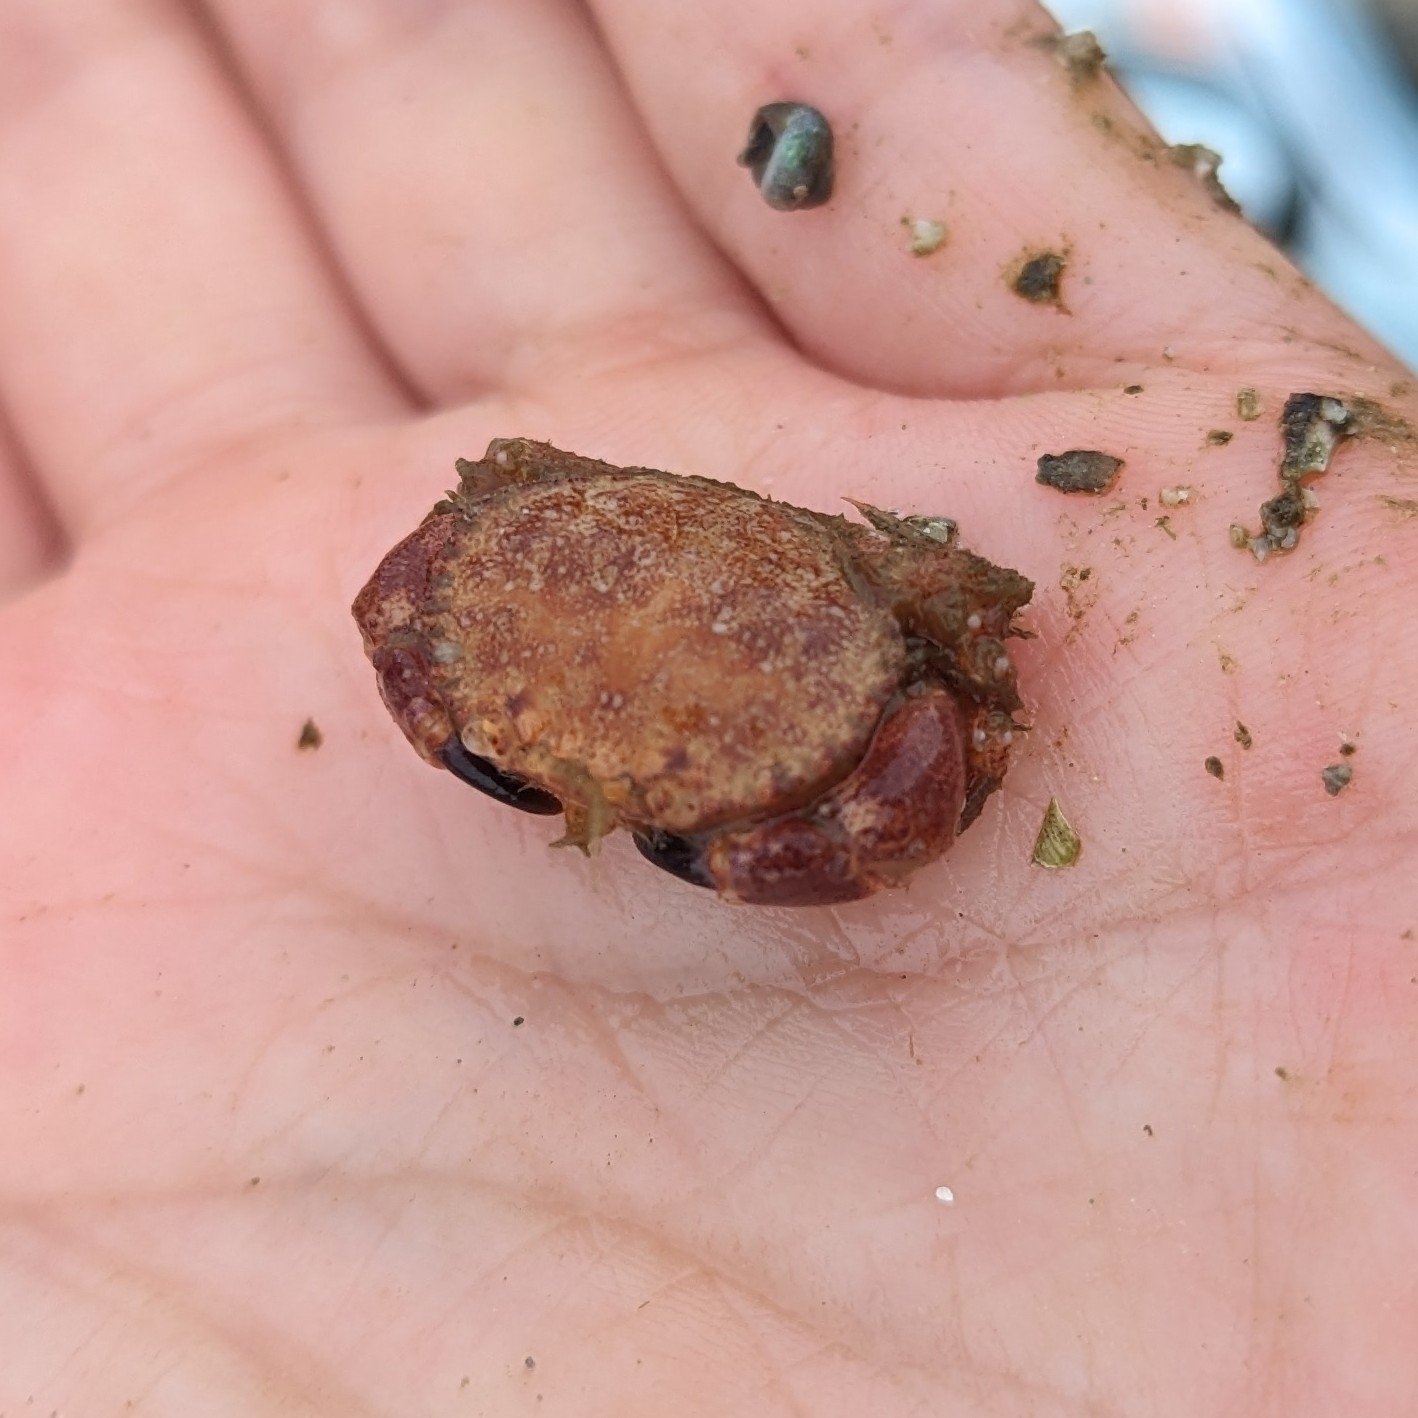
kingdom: Animalia
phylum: Arthropoda
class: Malacostraca
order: Decapoda
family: Cancridae
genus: Glebocarcinus
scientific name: Glebocarcinus oregonensis
